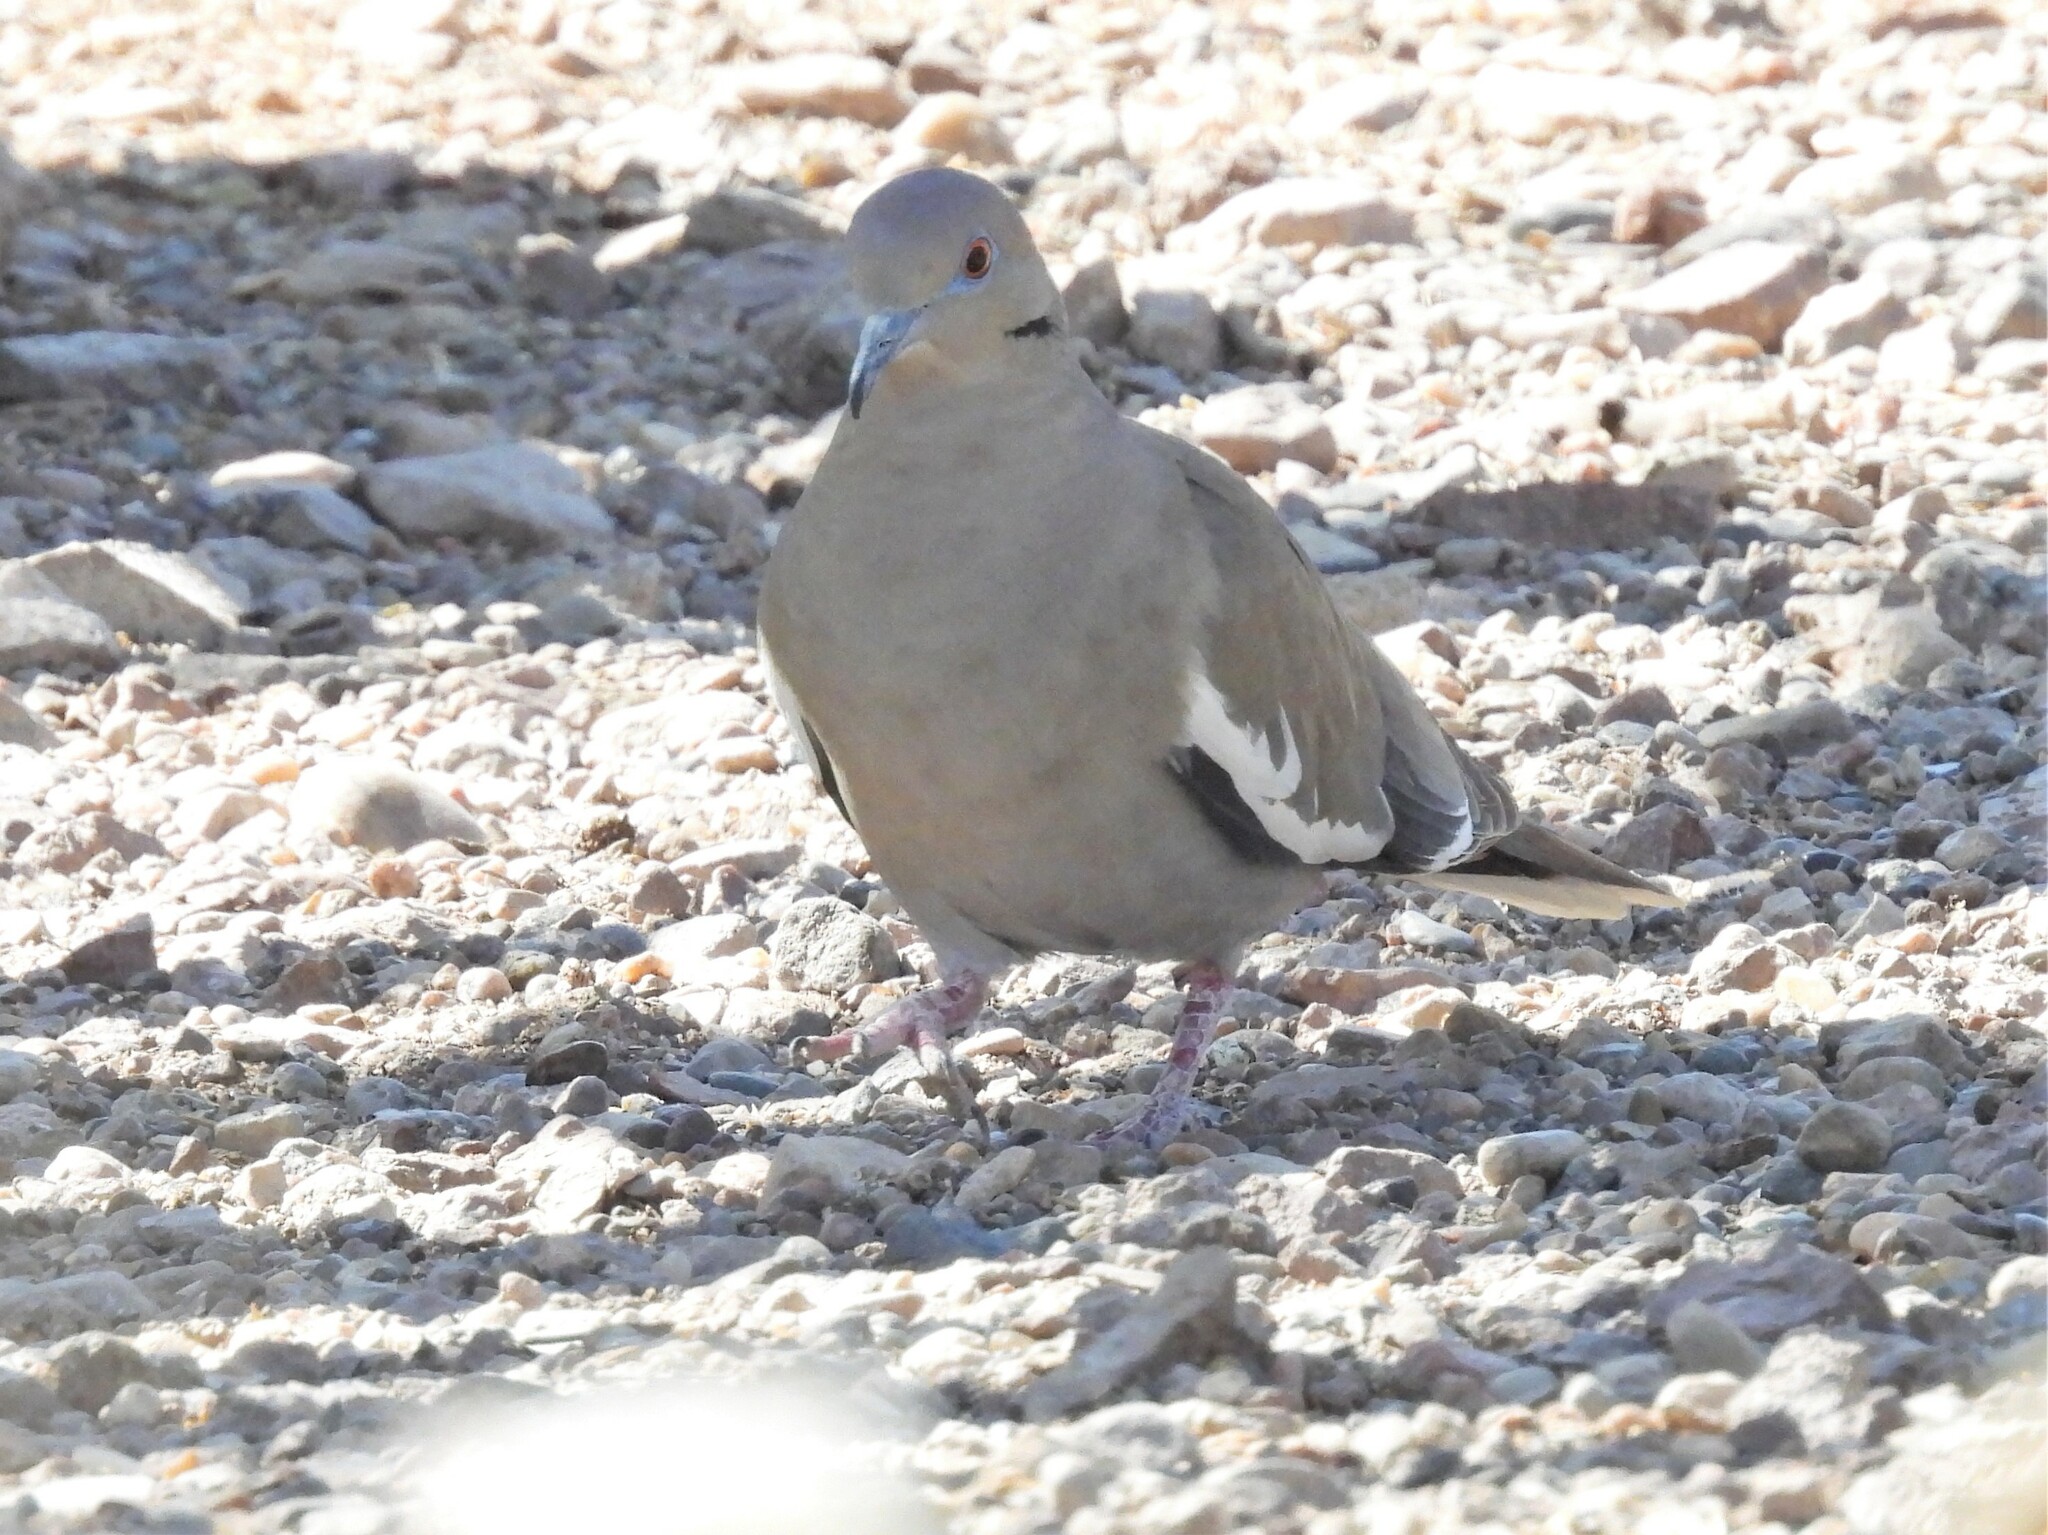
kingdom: Animalia
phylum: Chordata
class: Aves
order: Columbiformes
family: Columbidae
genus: Zenaida
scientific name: Zenaida asiatica
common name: White-winged dove
